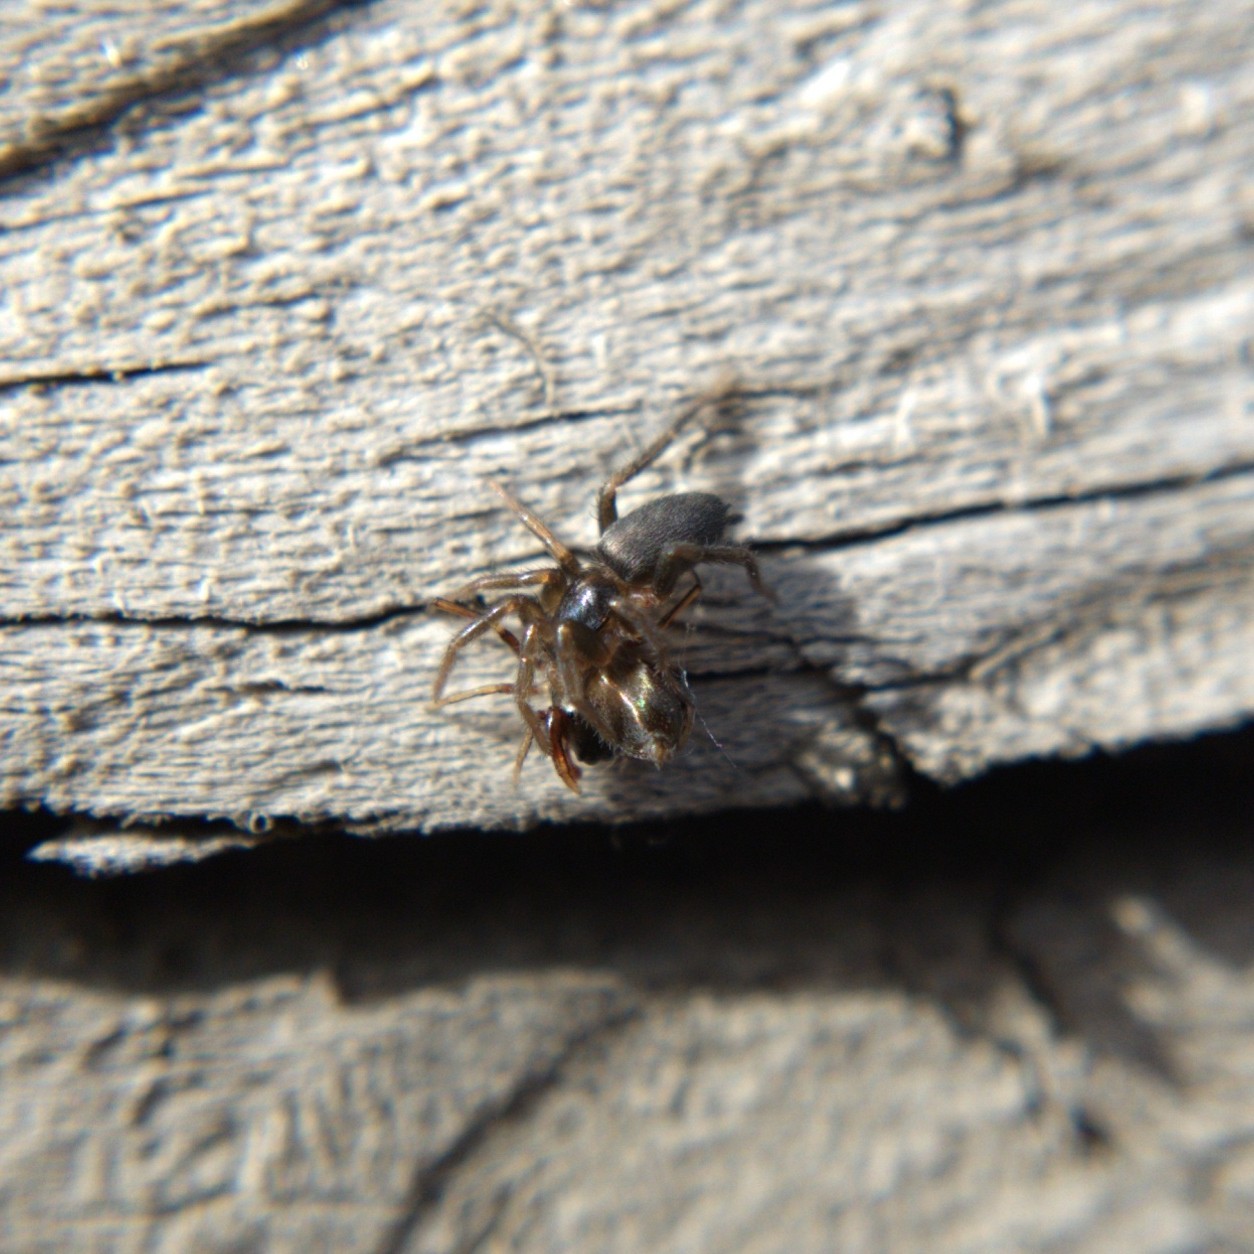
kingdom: Animalia
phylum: Arthropoda
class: Arachnida
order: Araneae
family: Gnaphosidae
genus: Herpyllus
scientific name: Herpyllus ecclesiasticus
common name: Eastern parson spider
